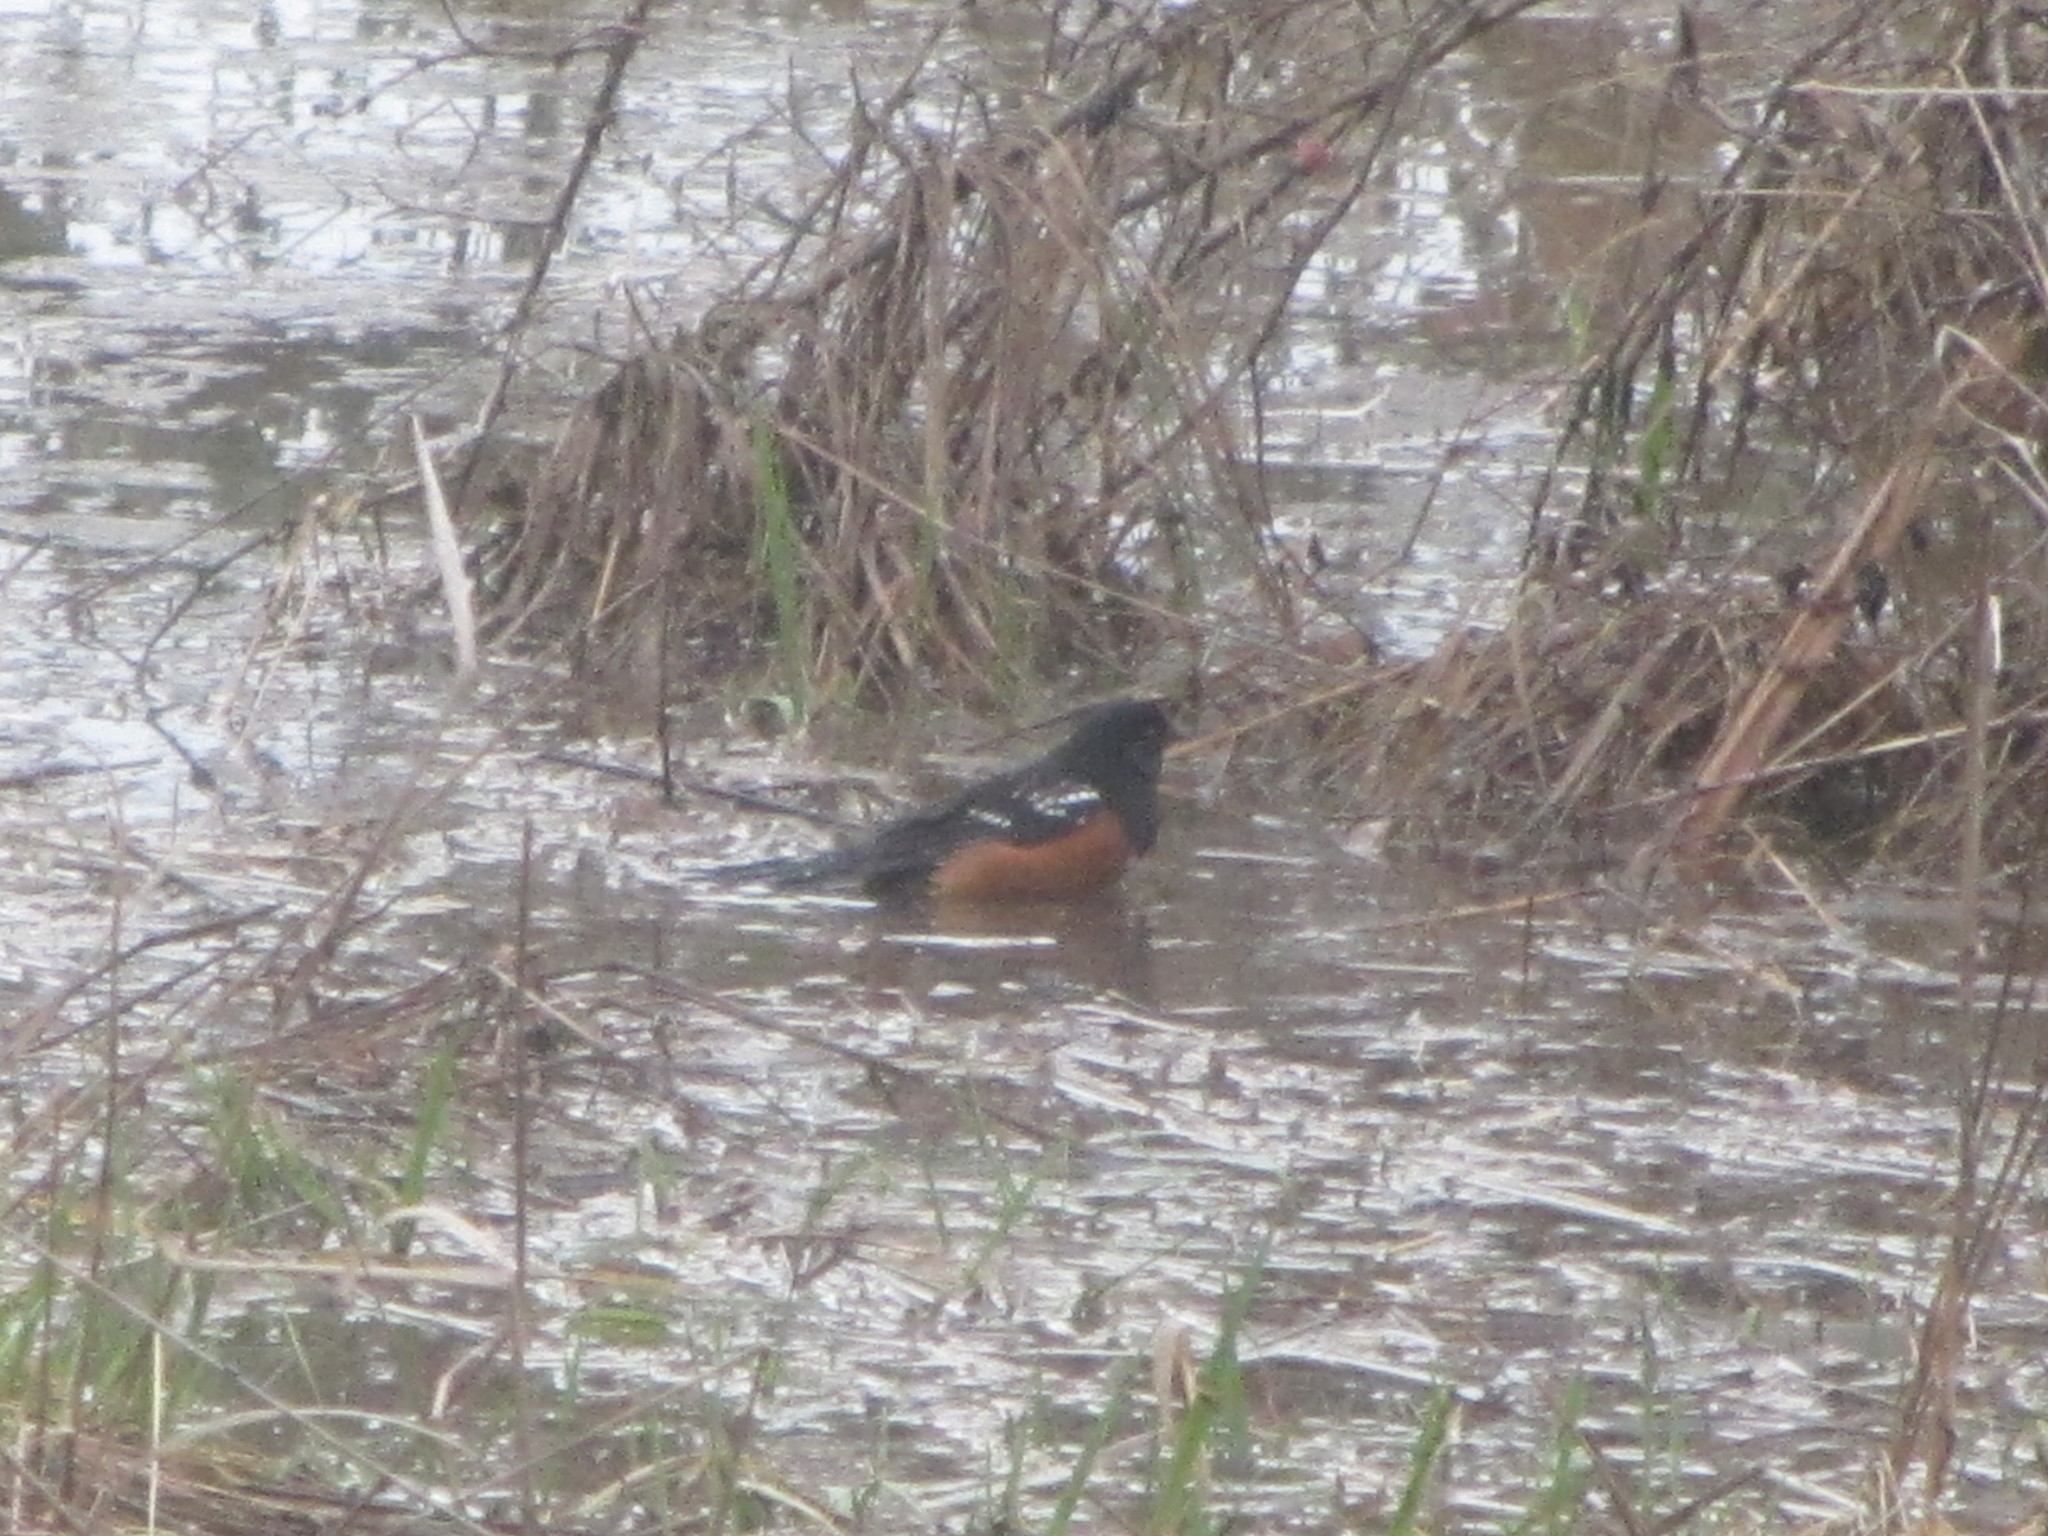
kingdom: Animalia
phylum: Chordata
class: Aves
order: Passeriformes
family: Passerellidae
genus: Pipilo
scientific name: Pipilo maculatus
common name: Spotted towhee
